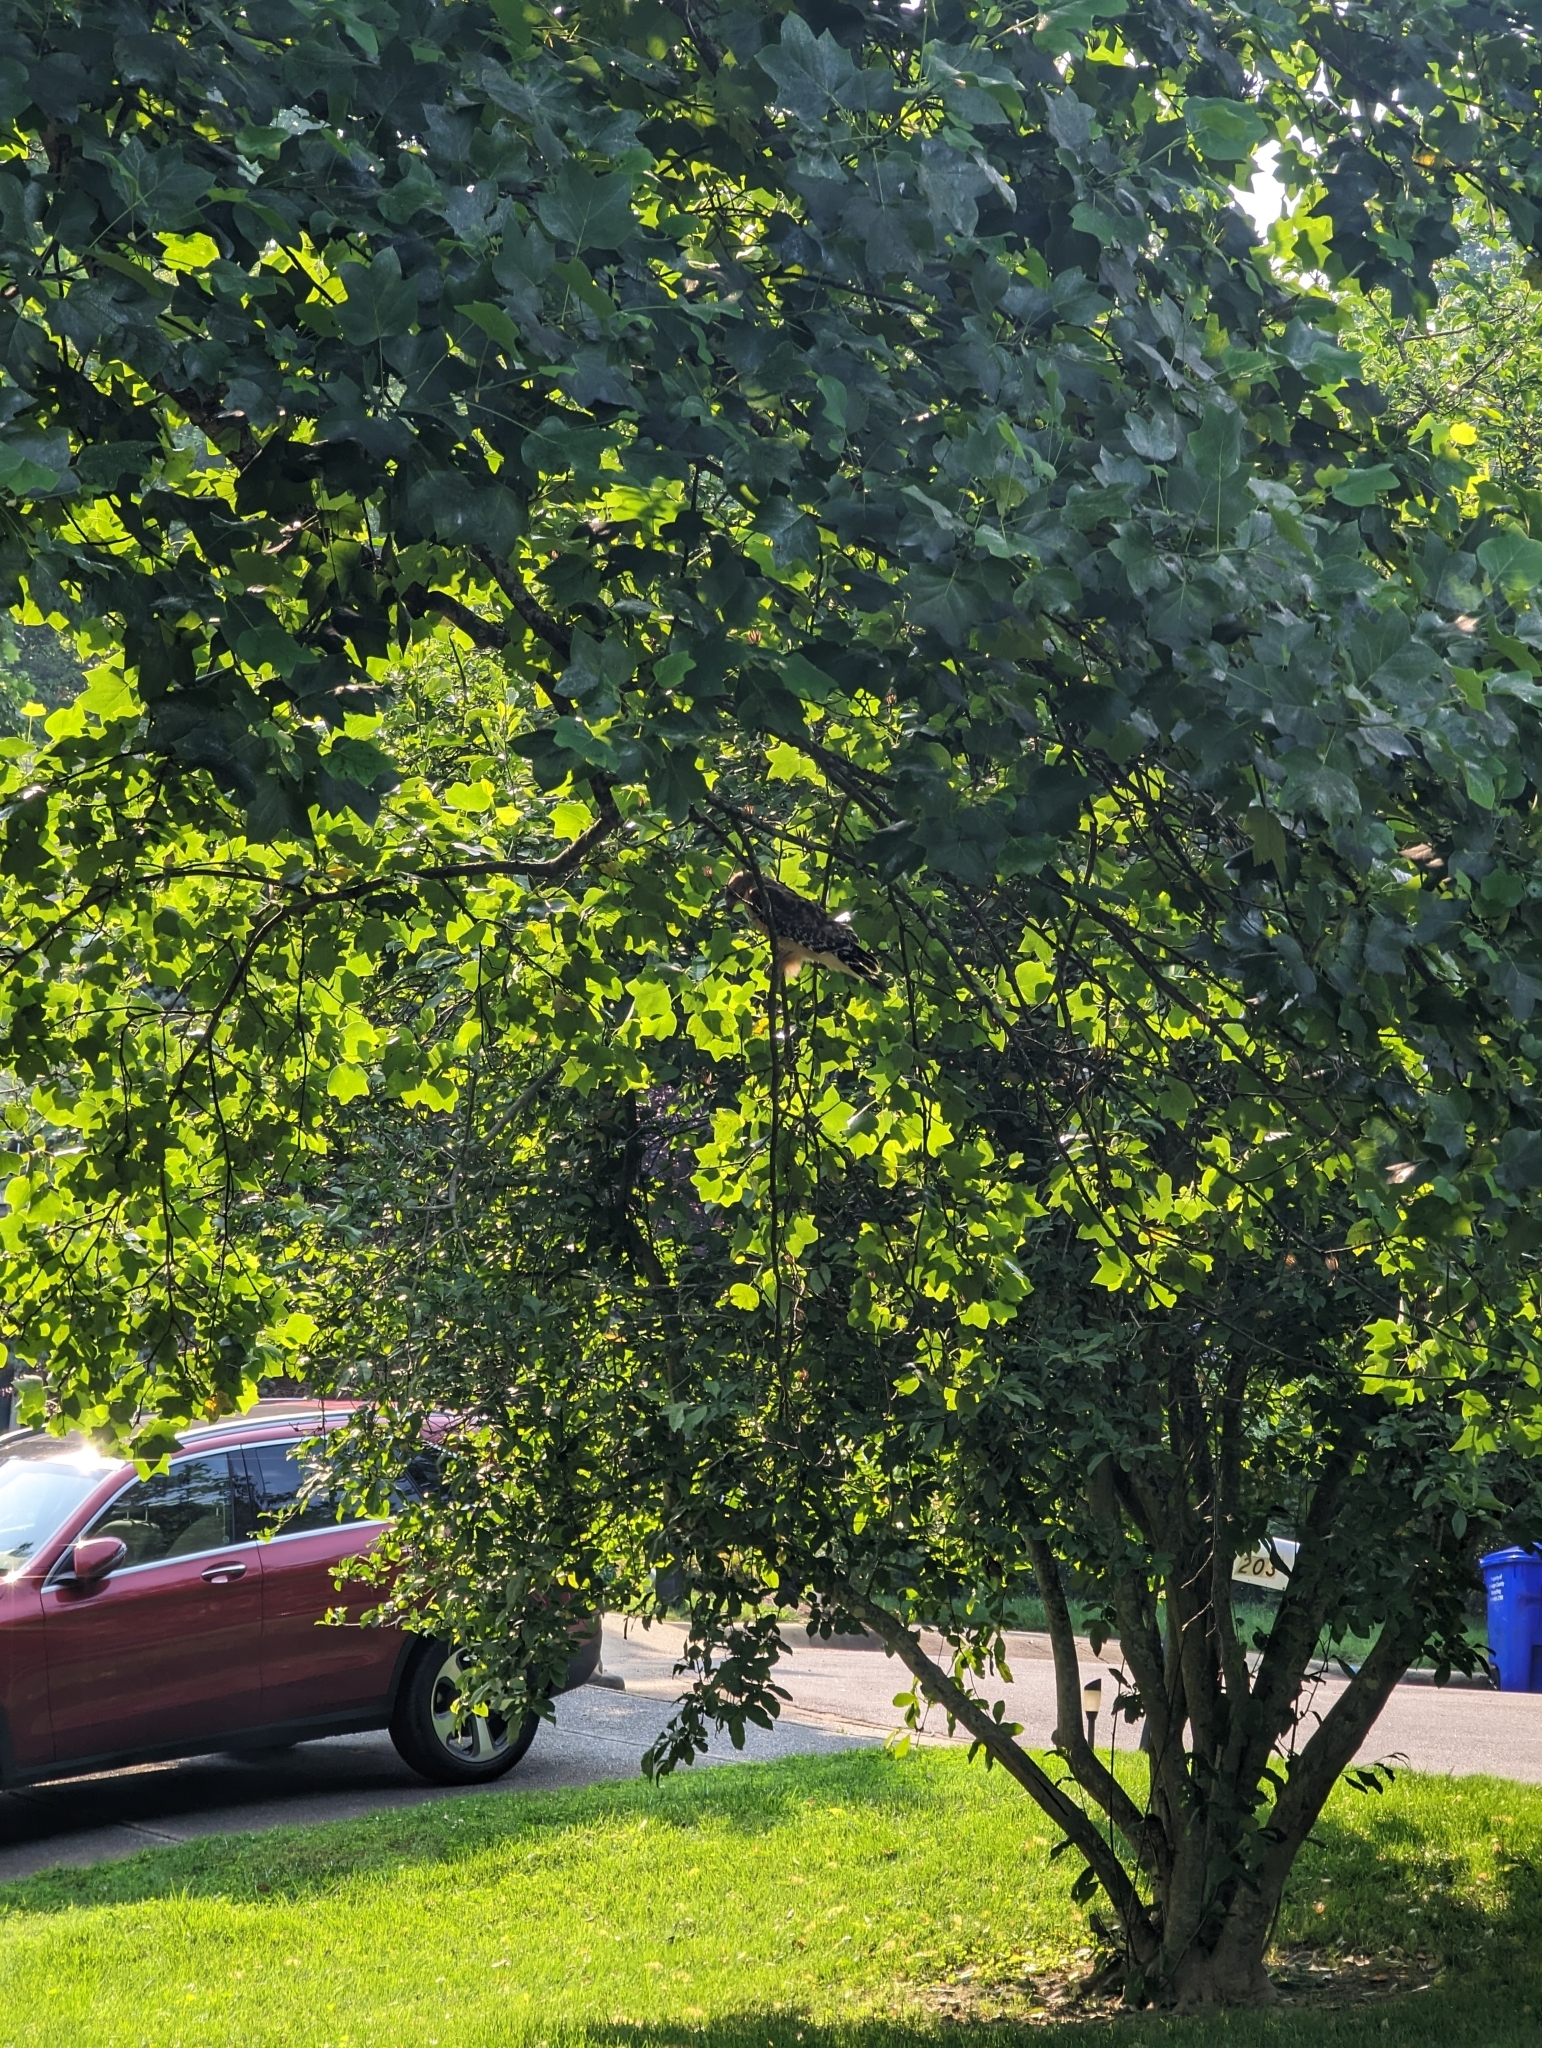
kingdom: Animalia
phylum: Chordata
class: Aves
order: Accipitriformes
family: Accipitridae
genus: Buteo
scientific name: Buteo lineatus
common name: Red-shouldered hawk
